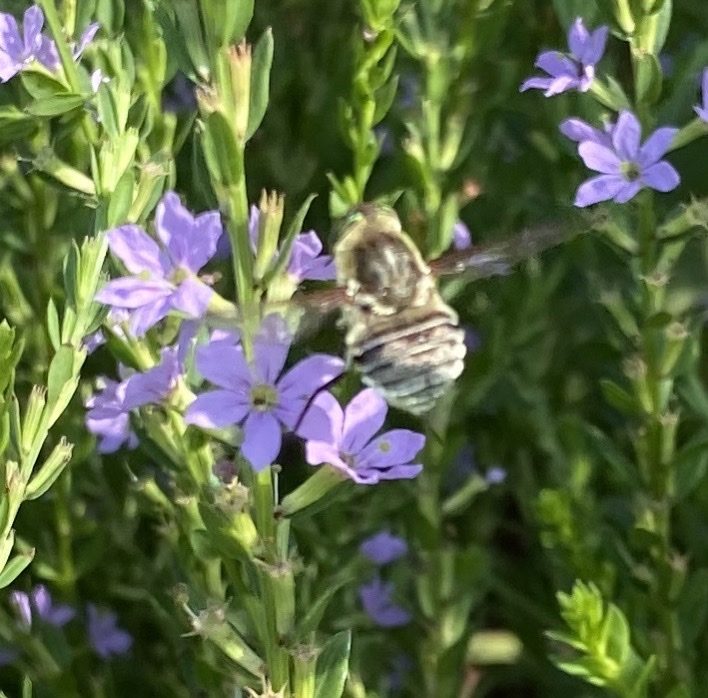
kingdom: Animalia
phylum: Arthropoda
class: Insecta
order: Diptera
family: Nemestrinidae
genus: Neorhynchocephalus
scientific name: Neorhynchocephalus volaticus
